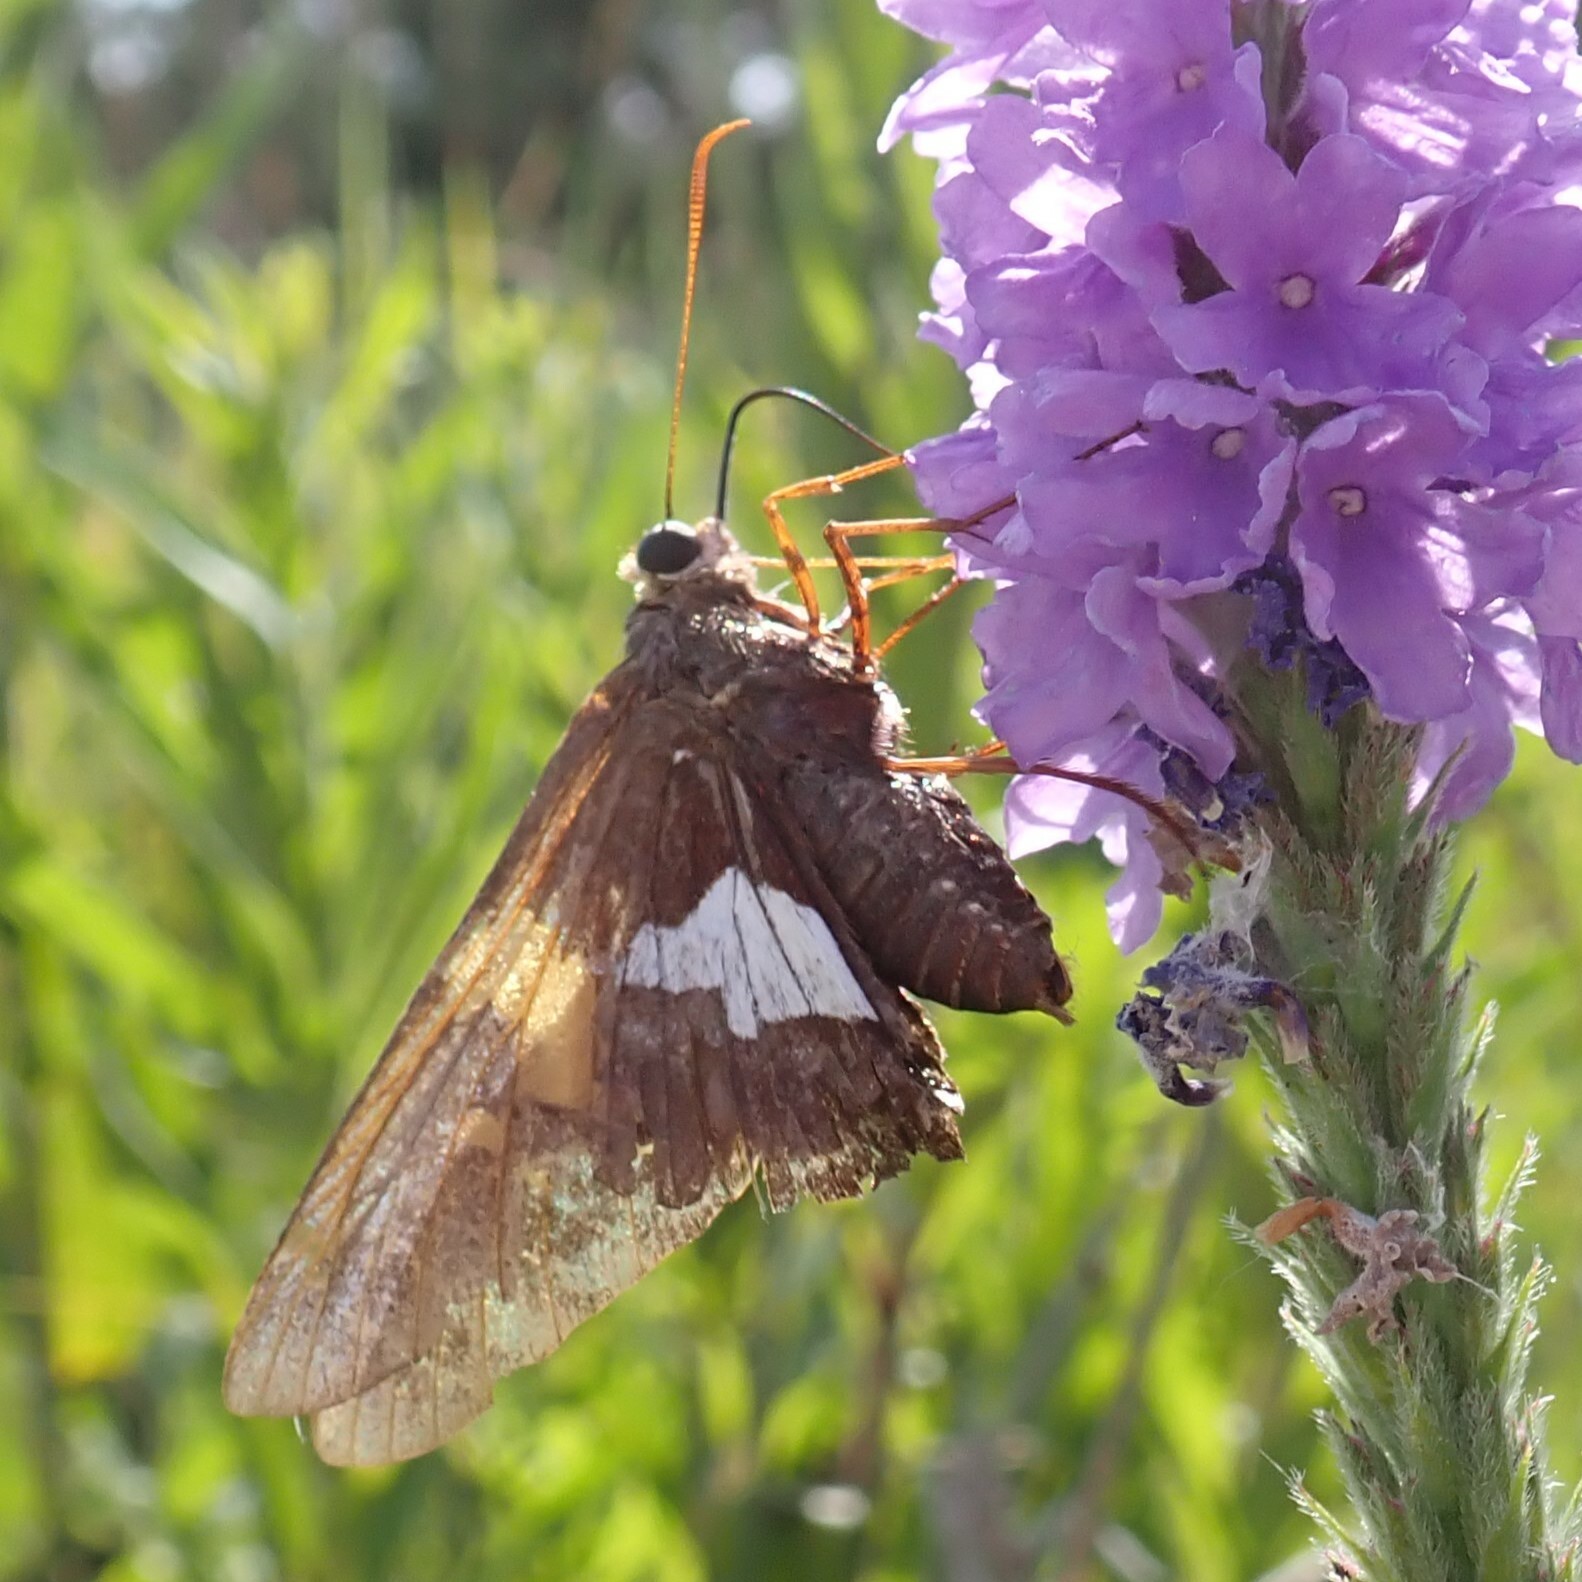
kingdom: Animalia
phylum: Arthropoda
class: Insecta
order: Lepidoptera
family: Hesperiidae
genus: Epargyreus
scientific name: Epargyreus clarus
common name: Silver-spotted skipper
